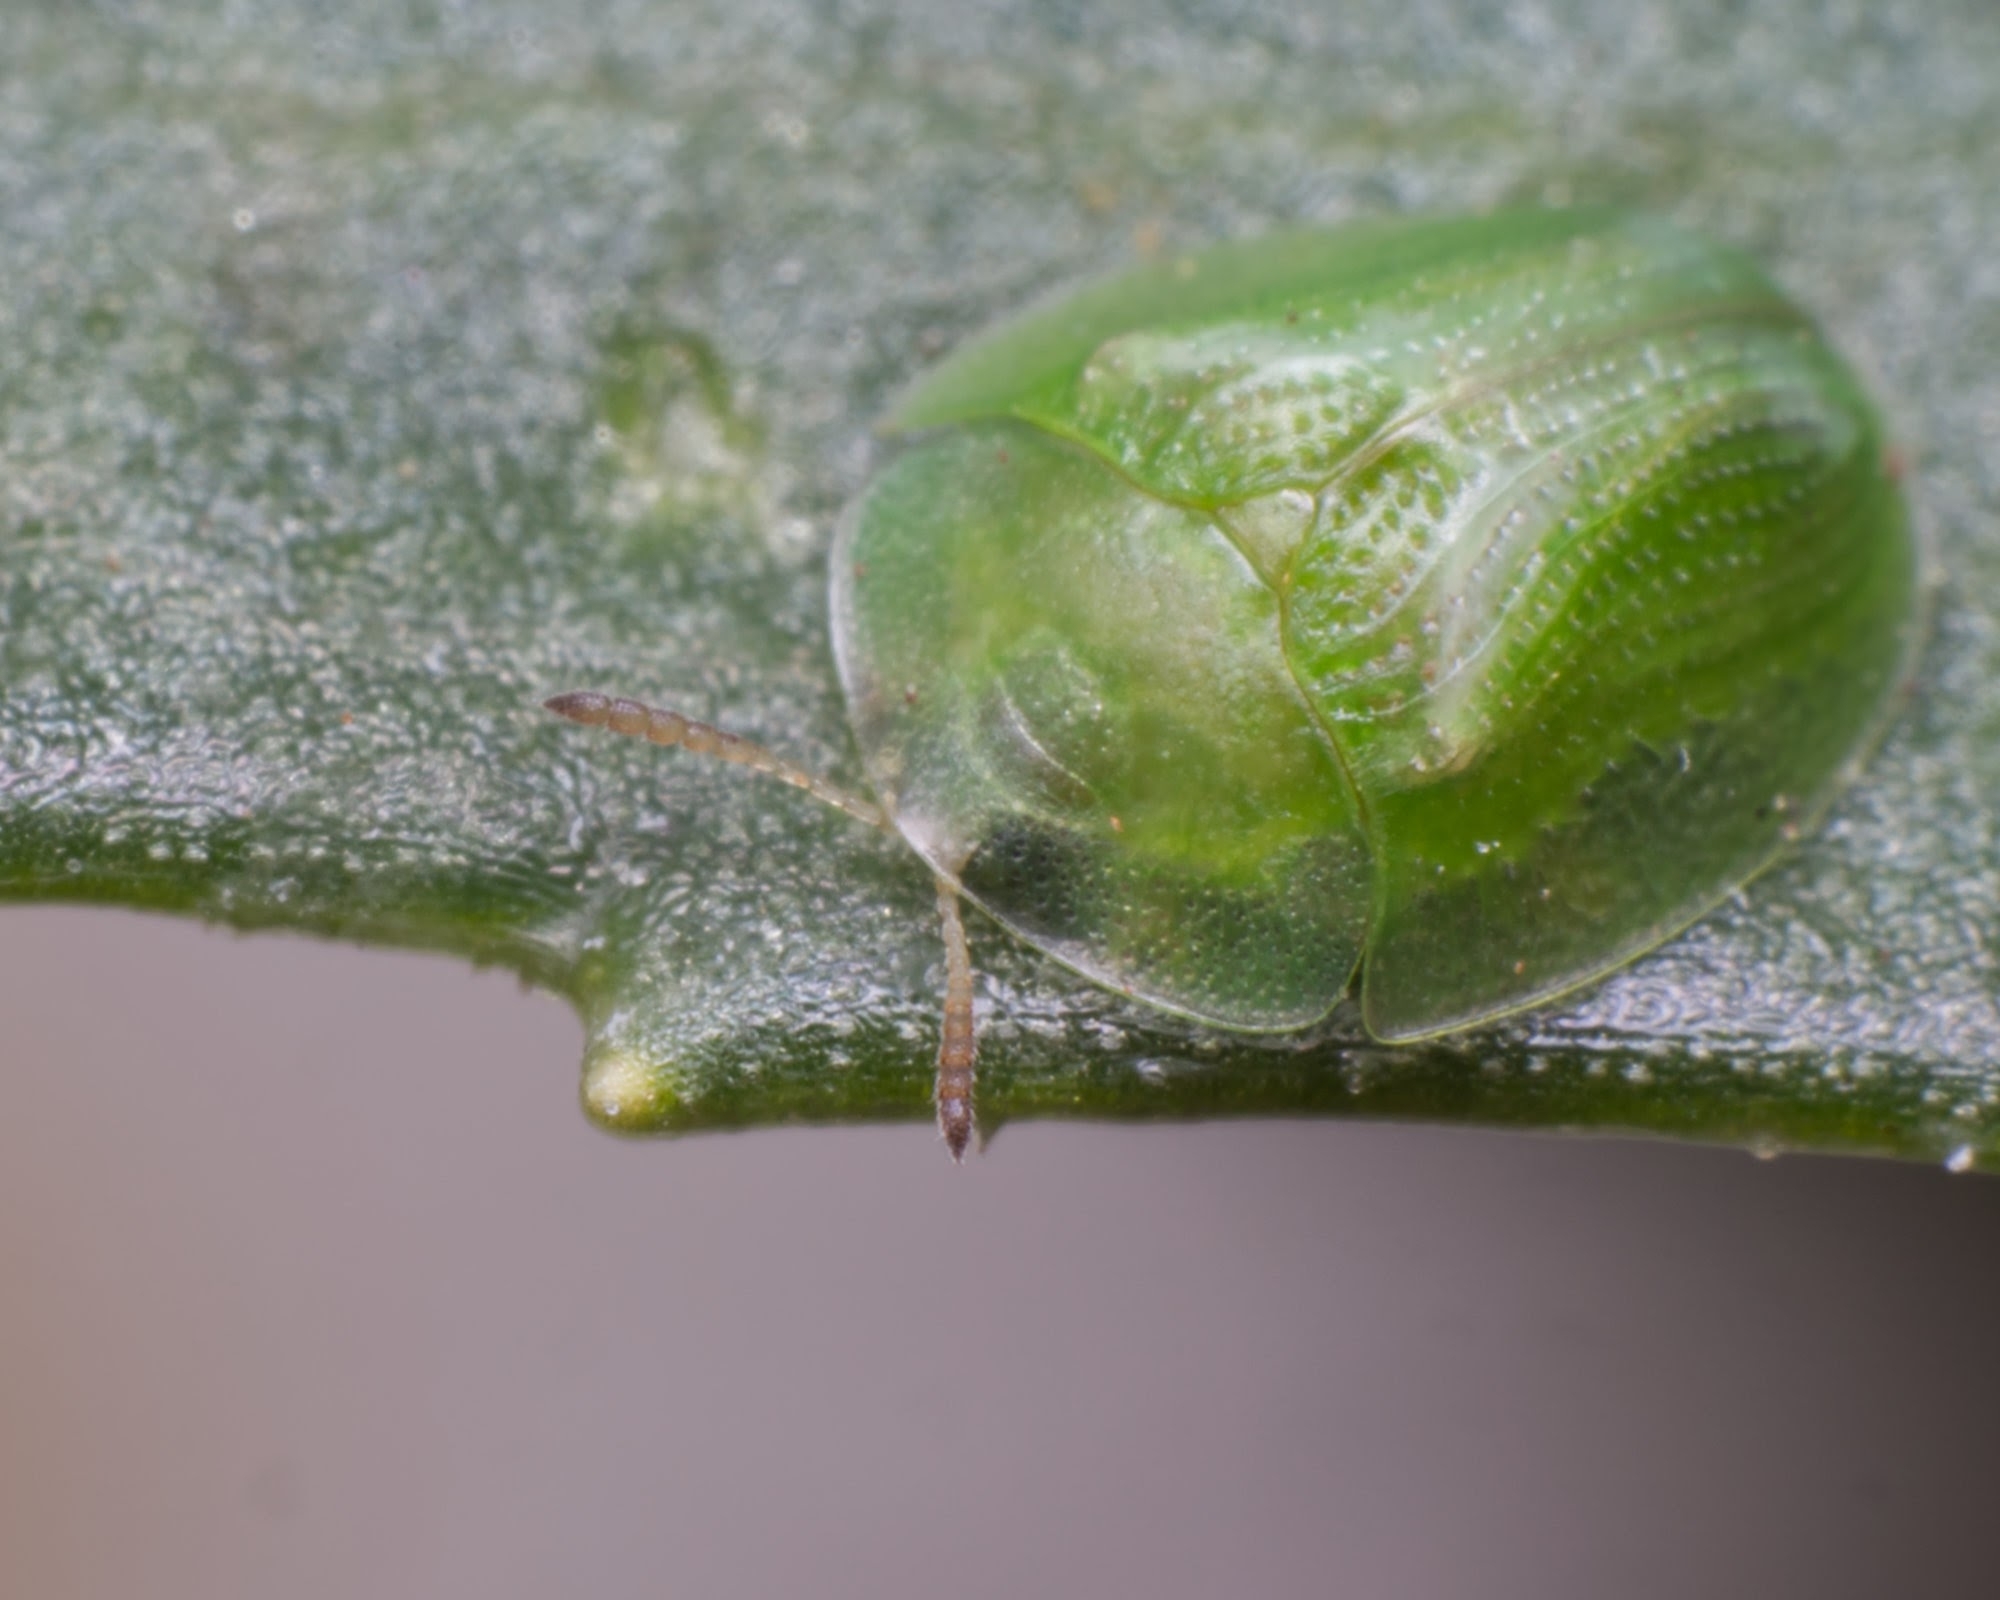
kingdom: Animalia
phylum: Arthropoda
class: Insecta
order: Coleoptera
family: Chrysomelidae
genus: Cassida
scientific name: Cassida dorsovittata
